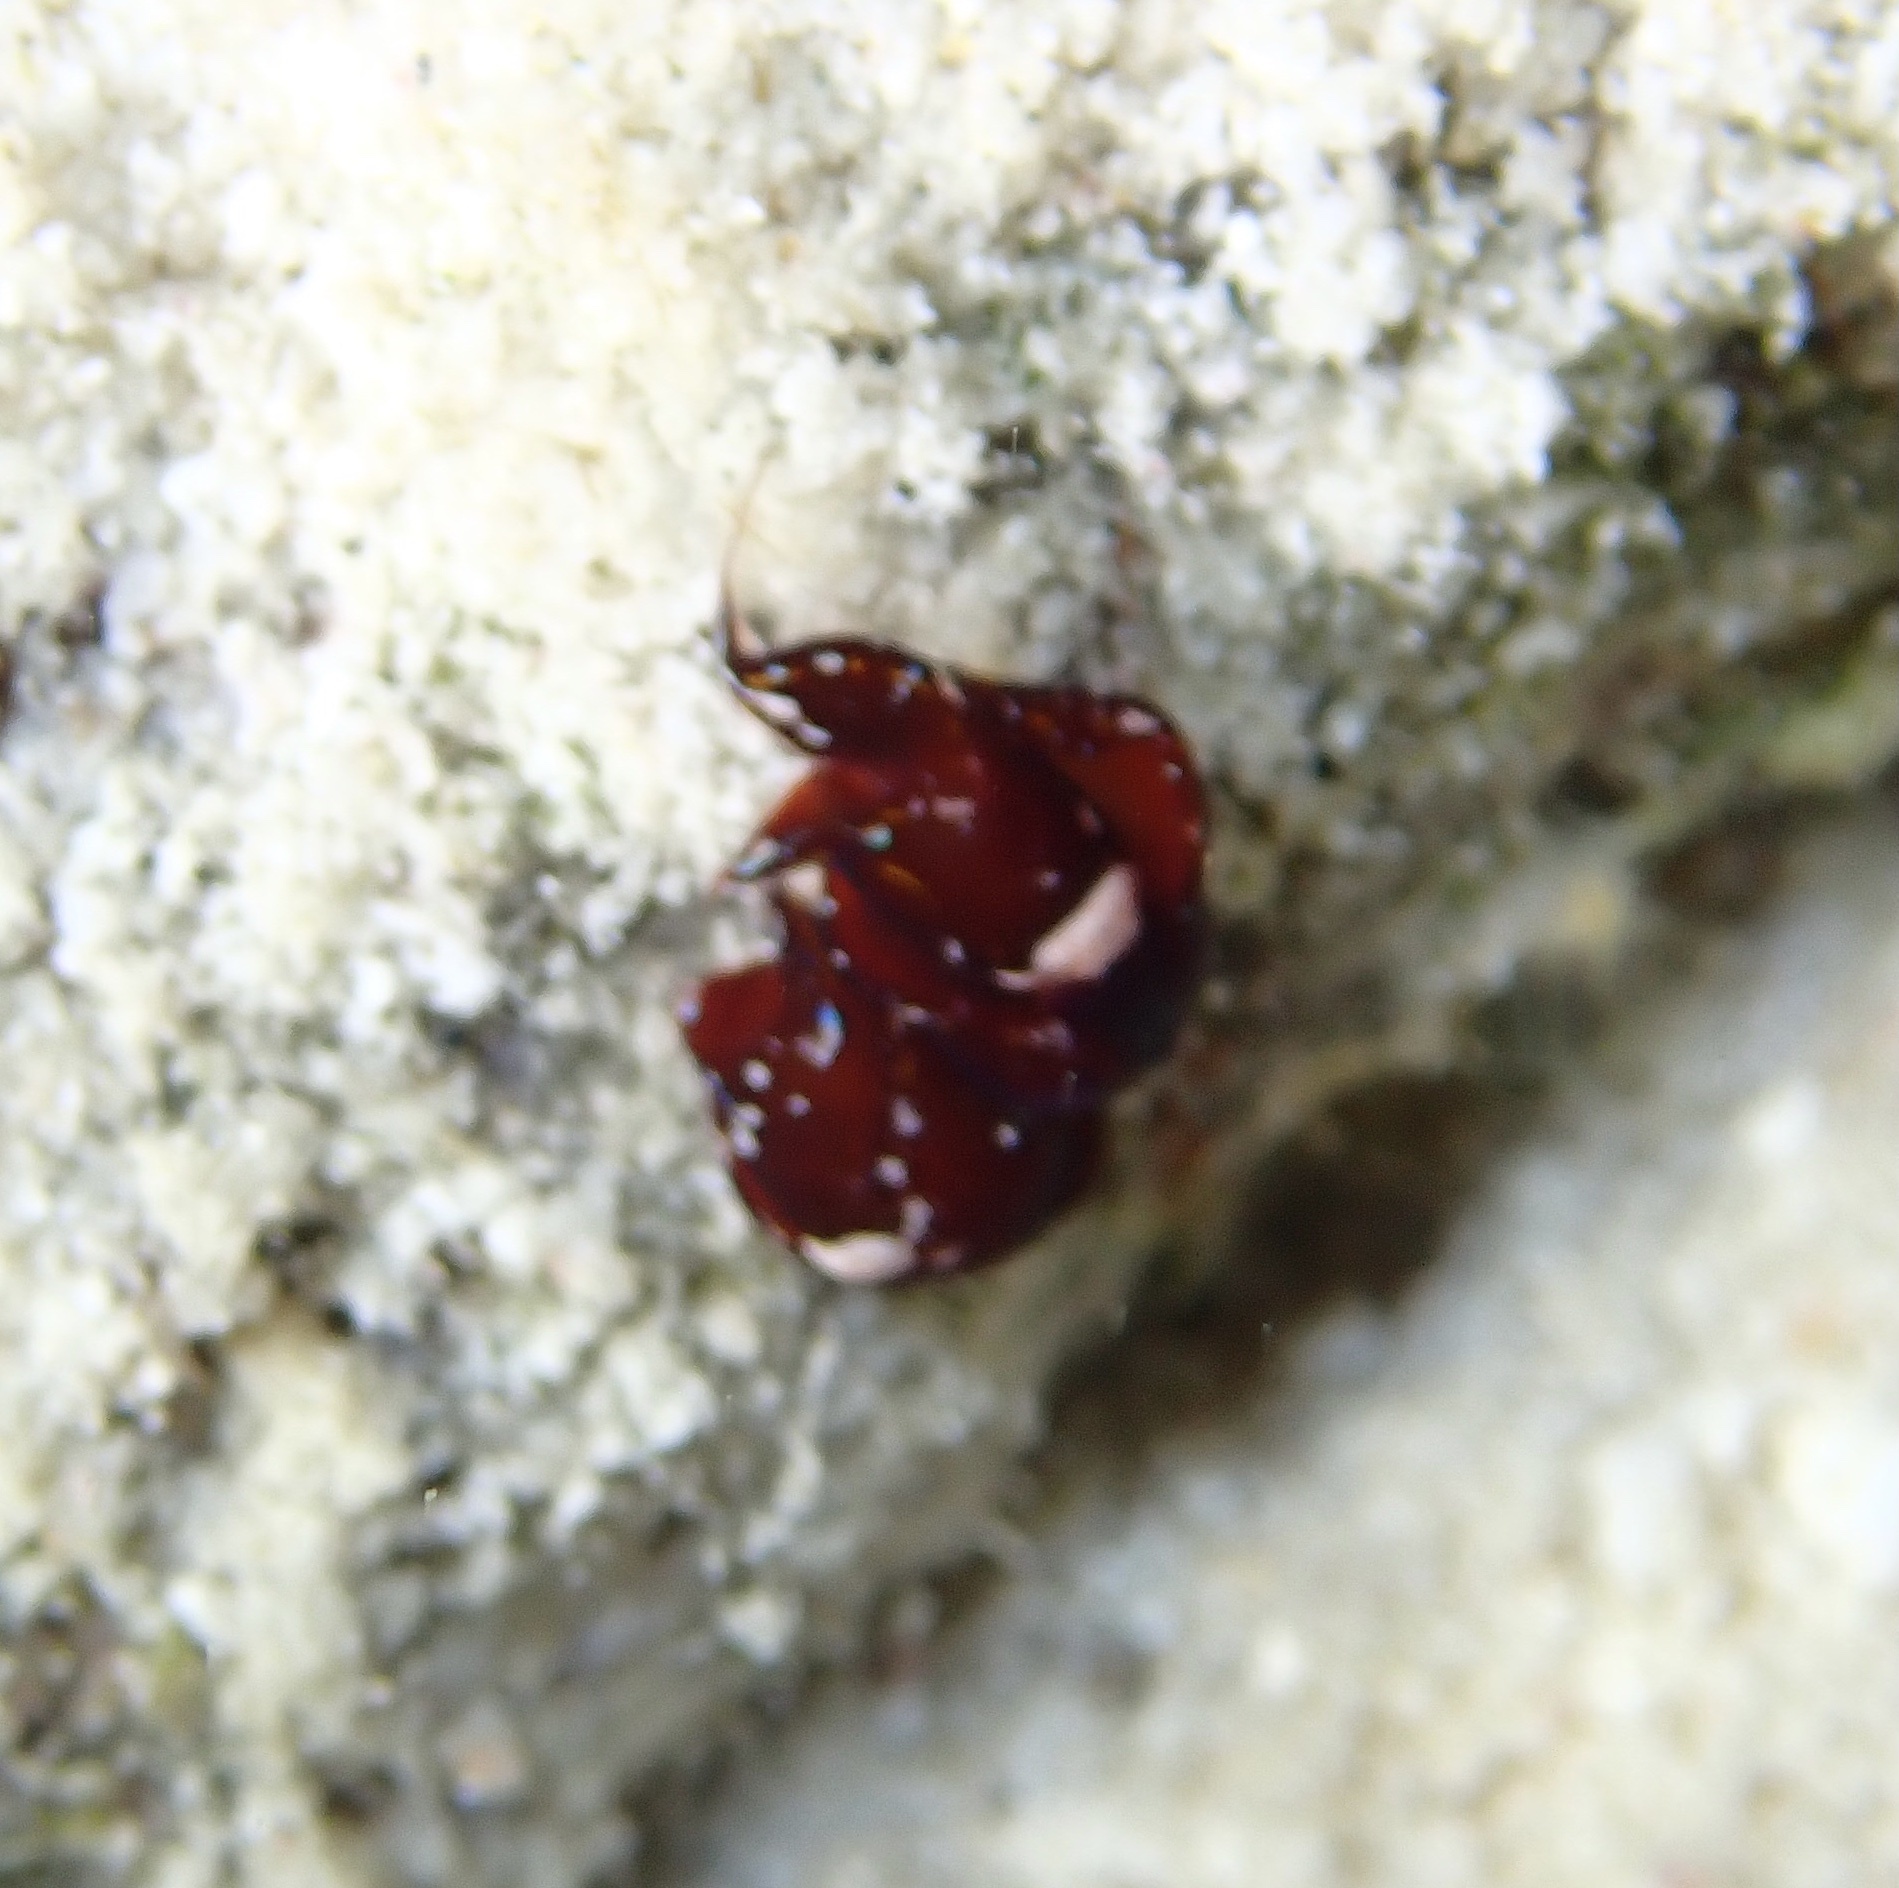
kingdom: Animalia
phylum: Mollusca
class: Gastropoda
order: Cephalaspidea
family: Aglajidae
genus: Chelidonura
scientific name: Chelidonura cubana
